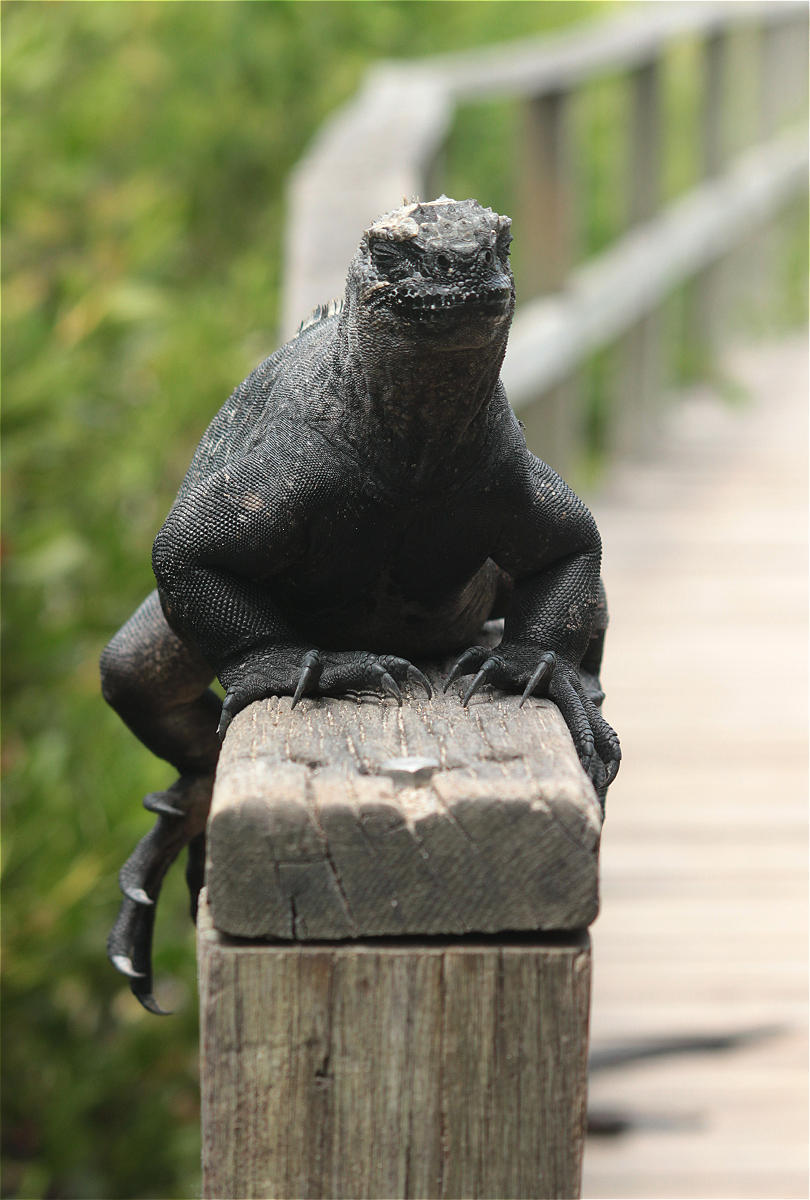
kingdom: Animalia
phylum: Chordata
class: Squamata
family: Iguanidae
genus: Amblyrhynchus
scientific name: Amblyrhynchus cristatus
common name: Marine iguana
